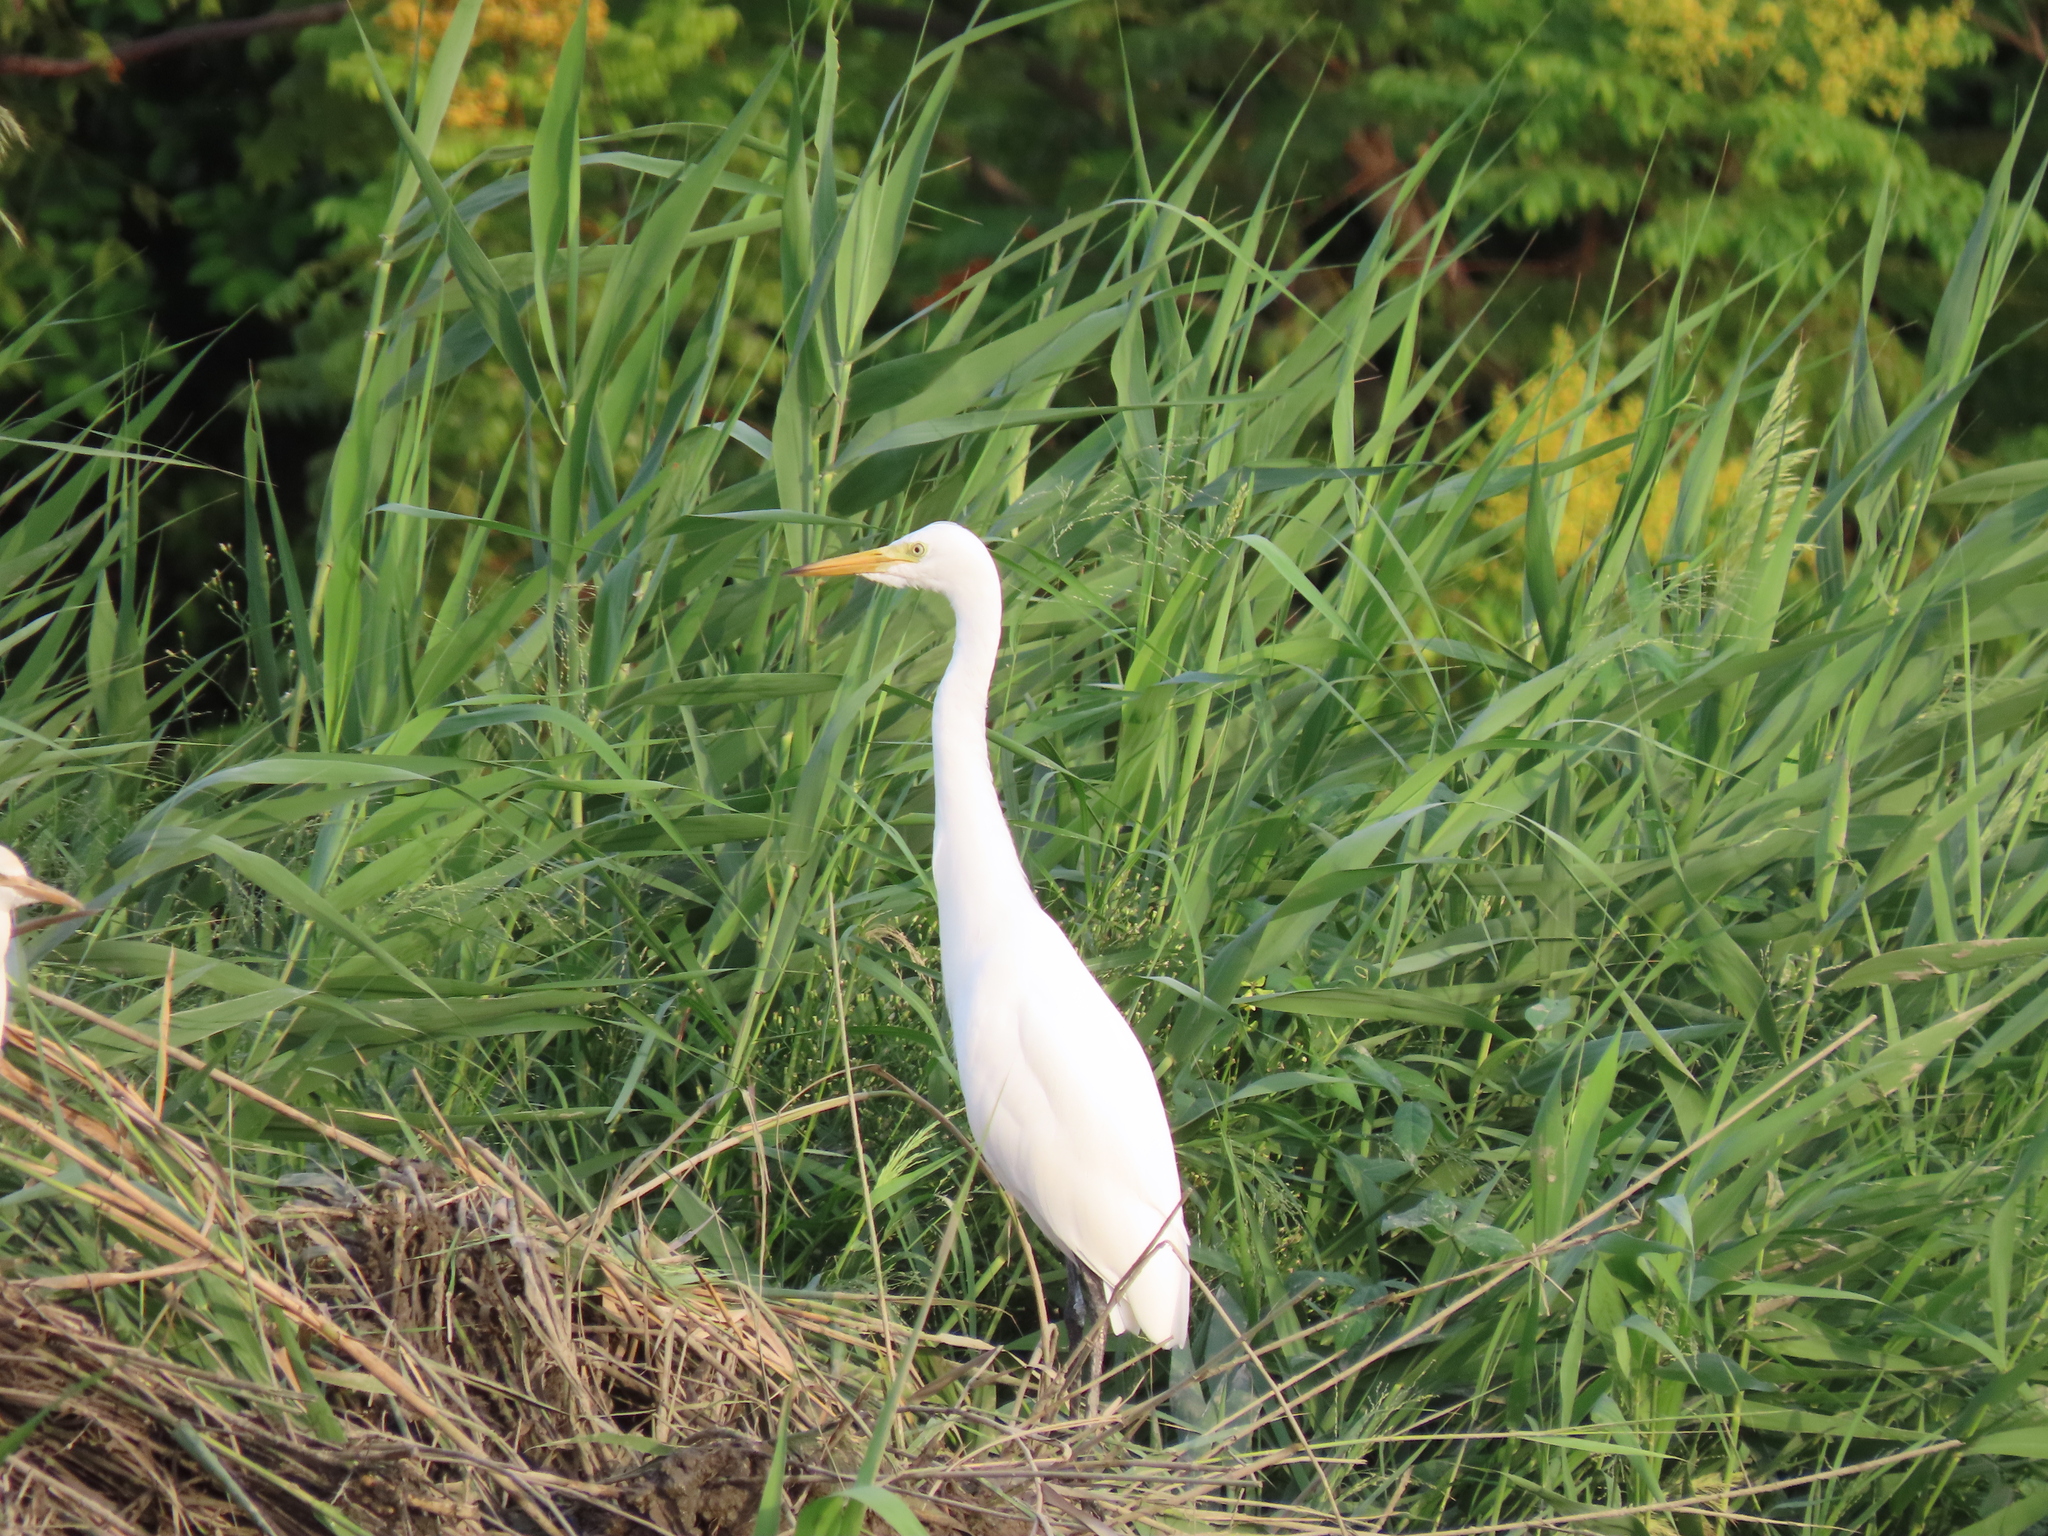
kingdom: Animalia
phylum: Chordata
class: Aves
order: Pelecaniformes
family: Ardeidae
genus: Egretta
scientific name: Egretta intermedia
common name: Intermediate egret
